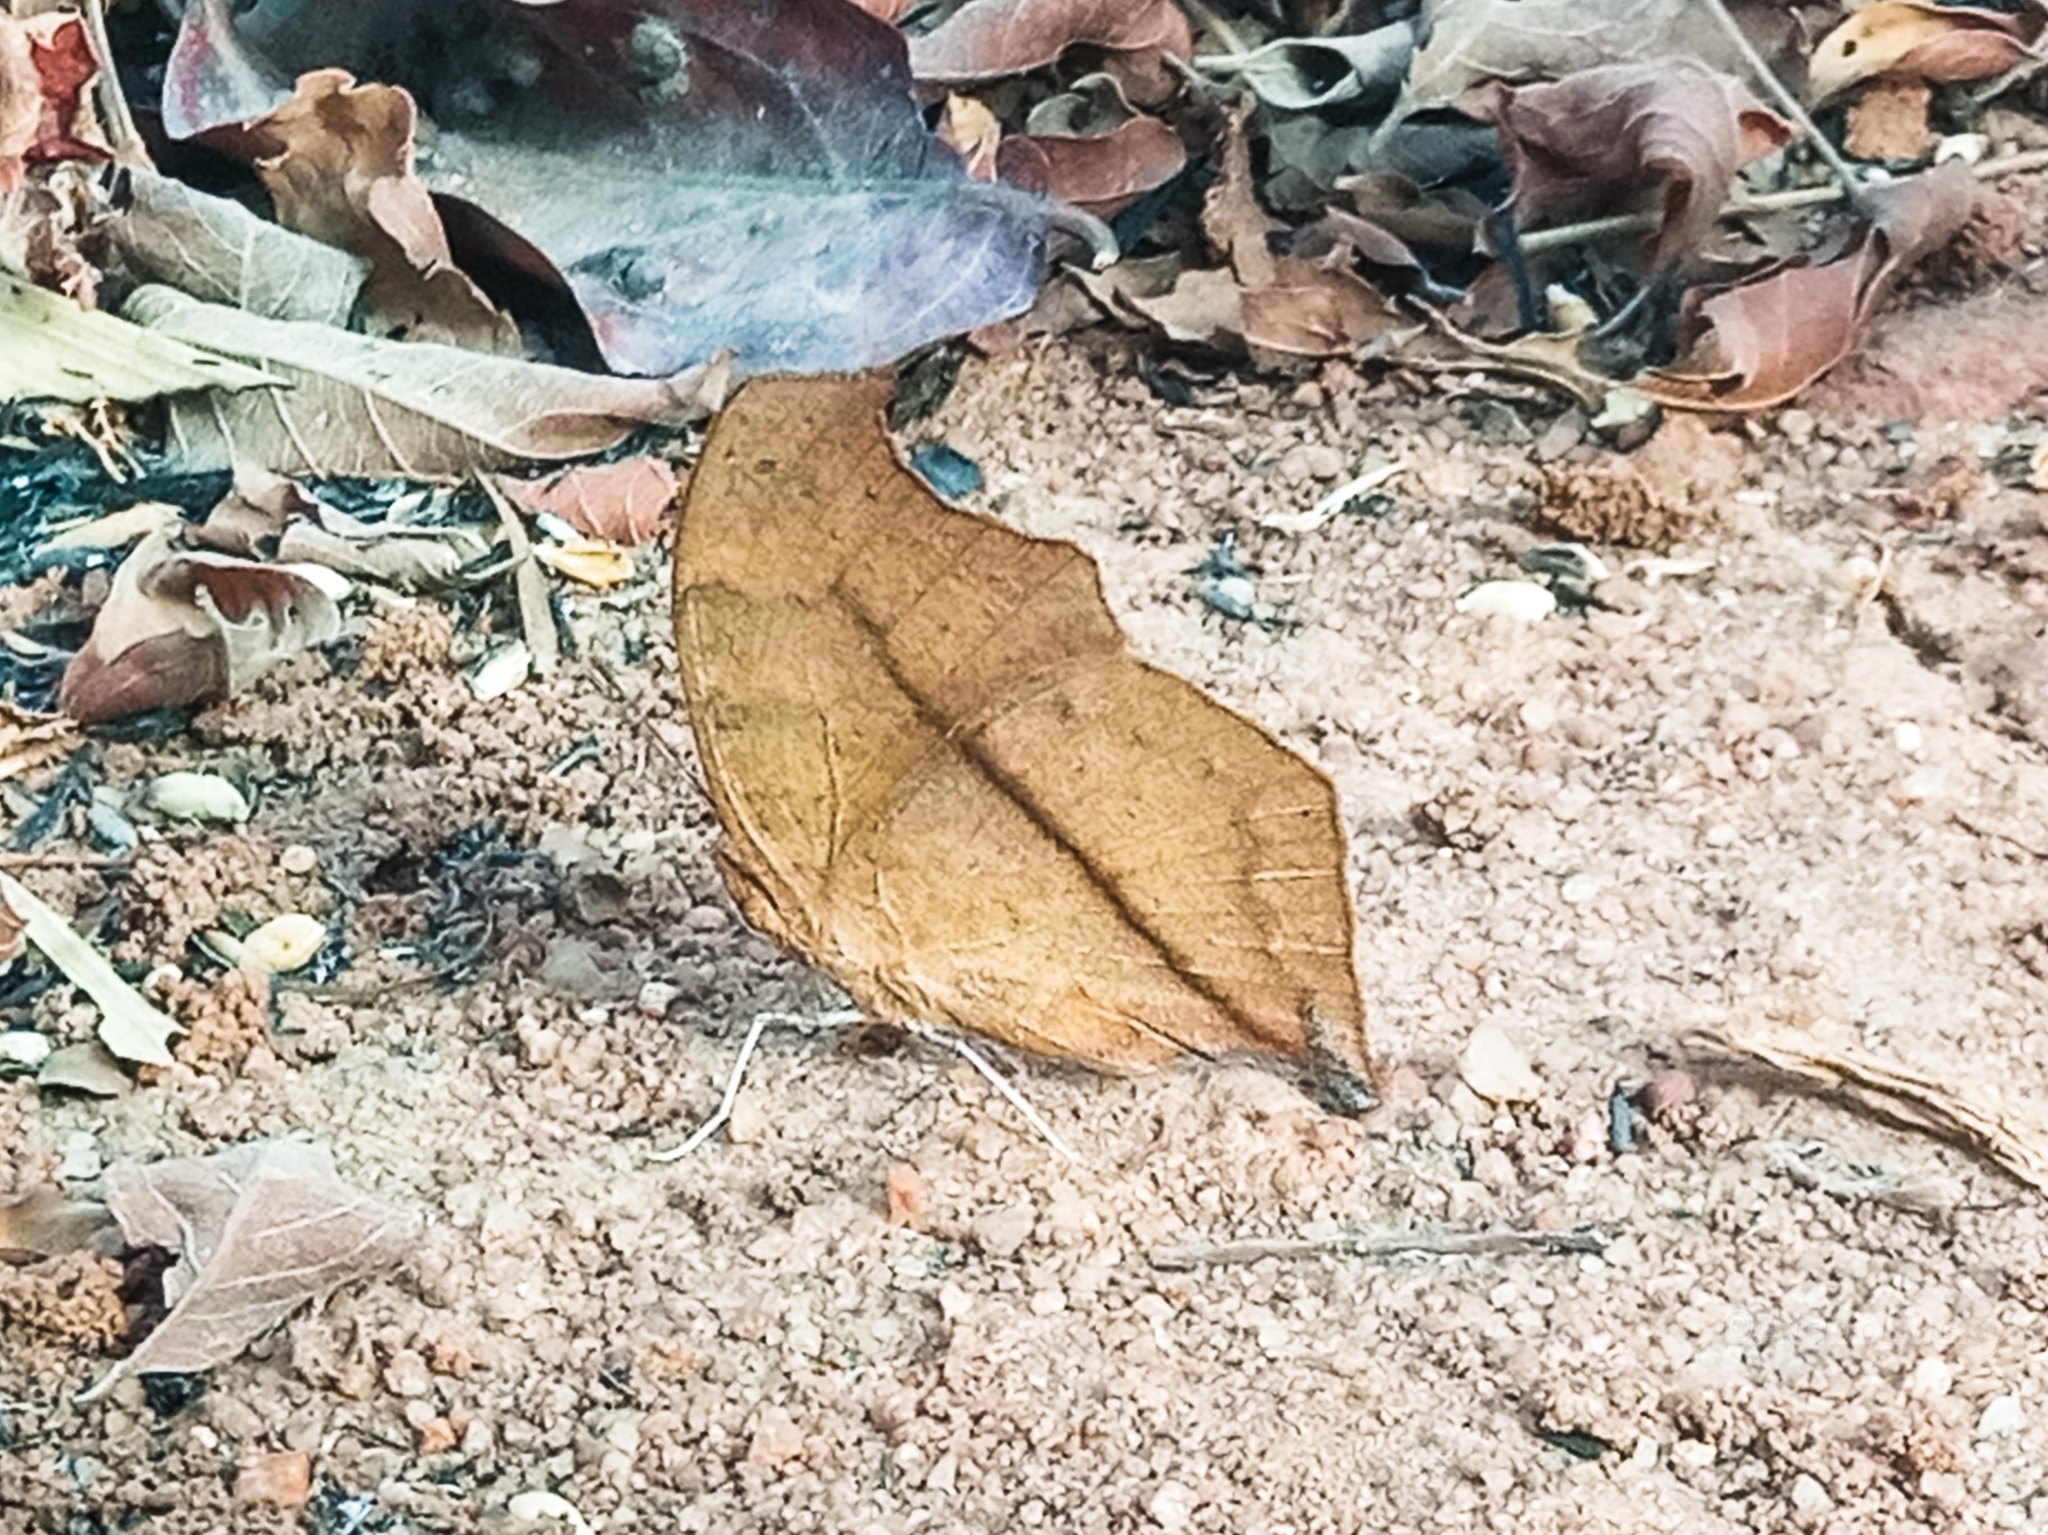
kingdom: Animalia
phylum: Arthropoda
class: Insecta
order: Lepidoptera
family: Nymphalidae
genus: Junonia
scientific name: Junonia antilope
